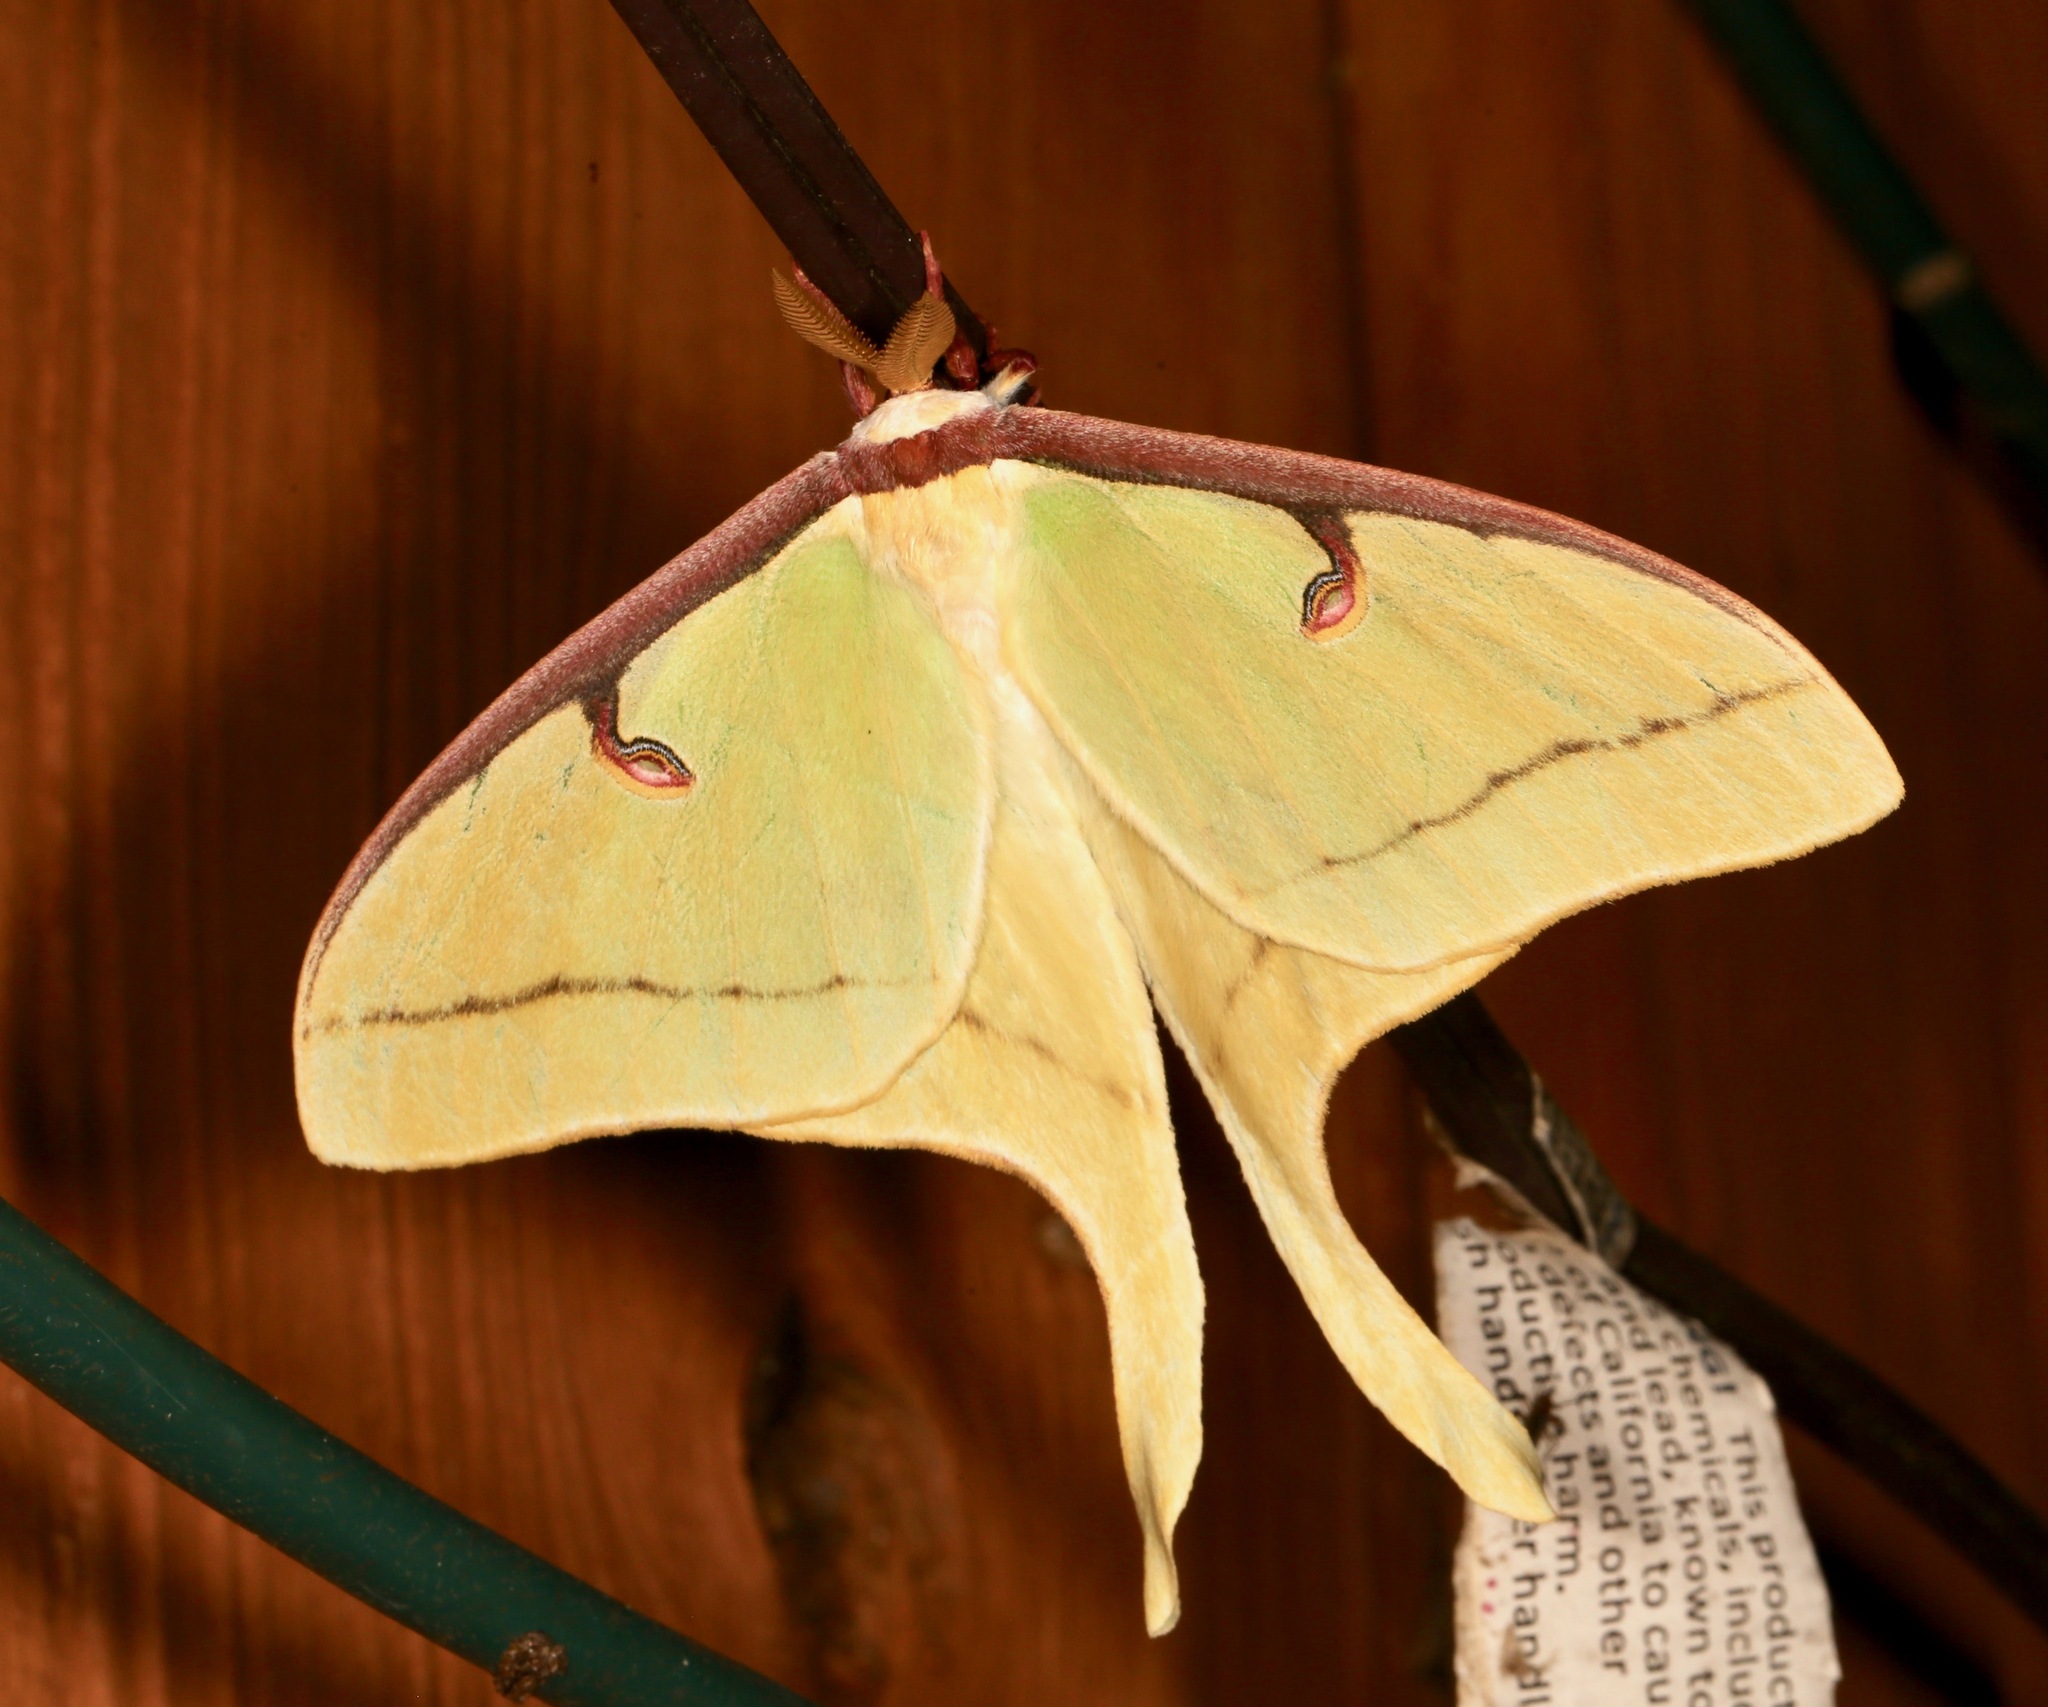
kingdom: Animalia
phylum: Arthropoda
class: Insecta
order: Lepidoptera
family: Saturniidae
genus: Actias
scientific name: Actias luna
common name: Luna moth
